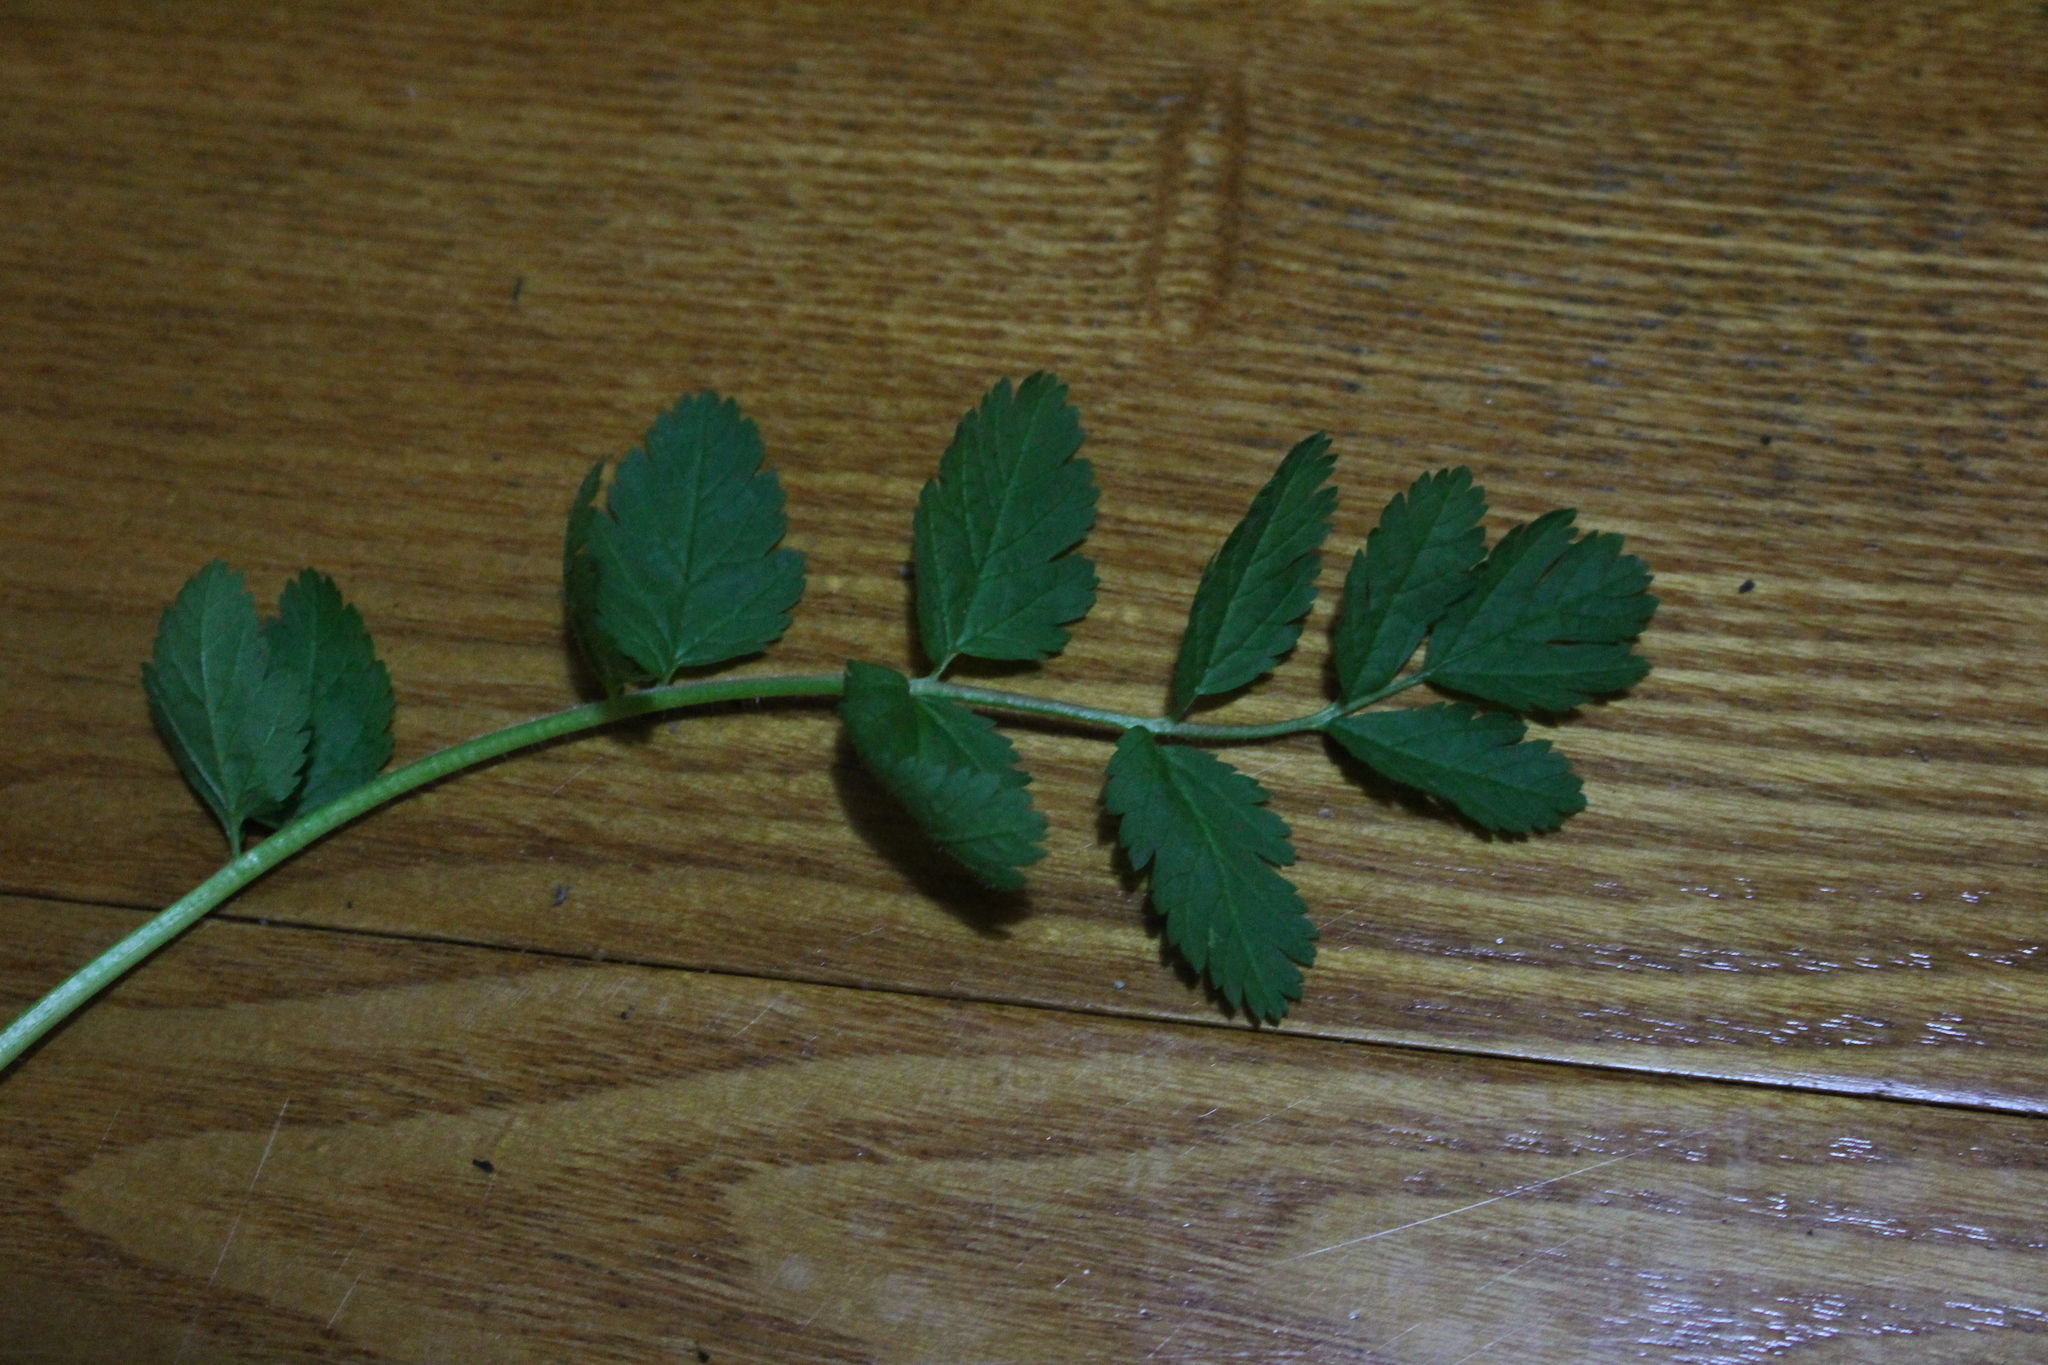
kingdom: Plantae
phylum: Tracheophyta
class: Magnoliopsida
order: Geraniales
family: Geraniaceae
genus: Erodium
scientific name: Erodium moschatum
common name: Musk stork's-bill
